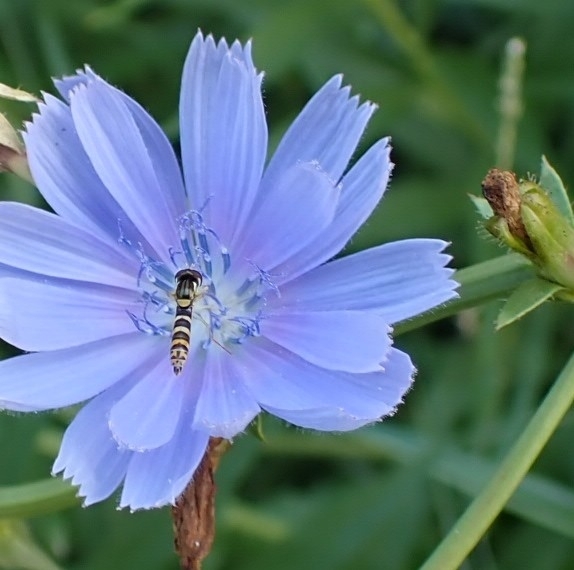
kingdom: Animalia
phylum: Arthropoda
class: Insecta
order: Diptera
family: Syrphidae
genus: Sphaerophoria
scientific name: Sphaerophoria scripta
